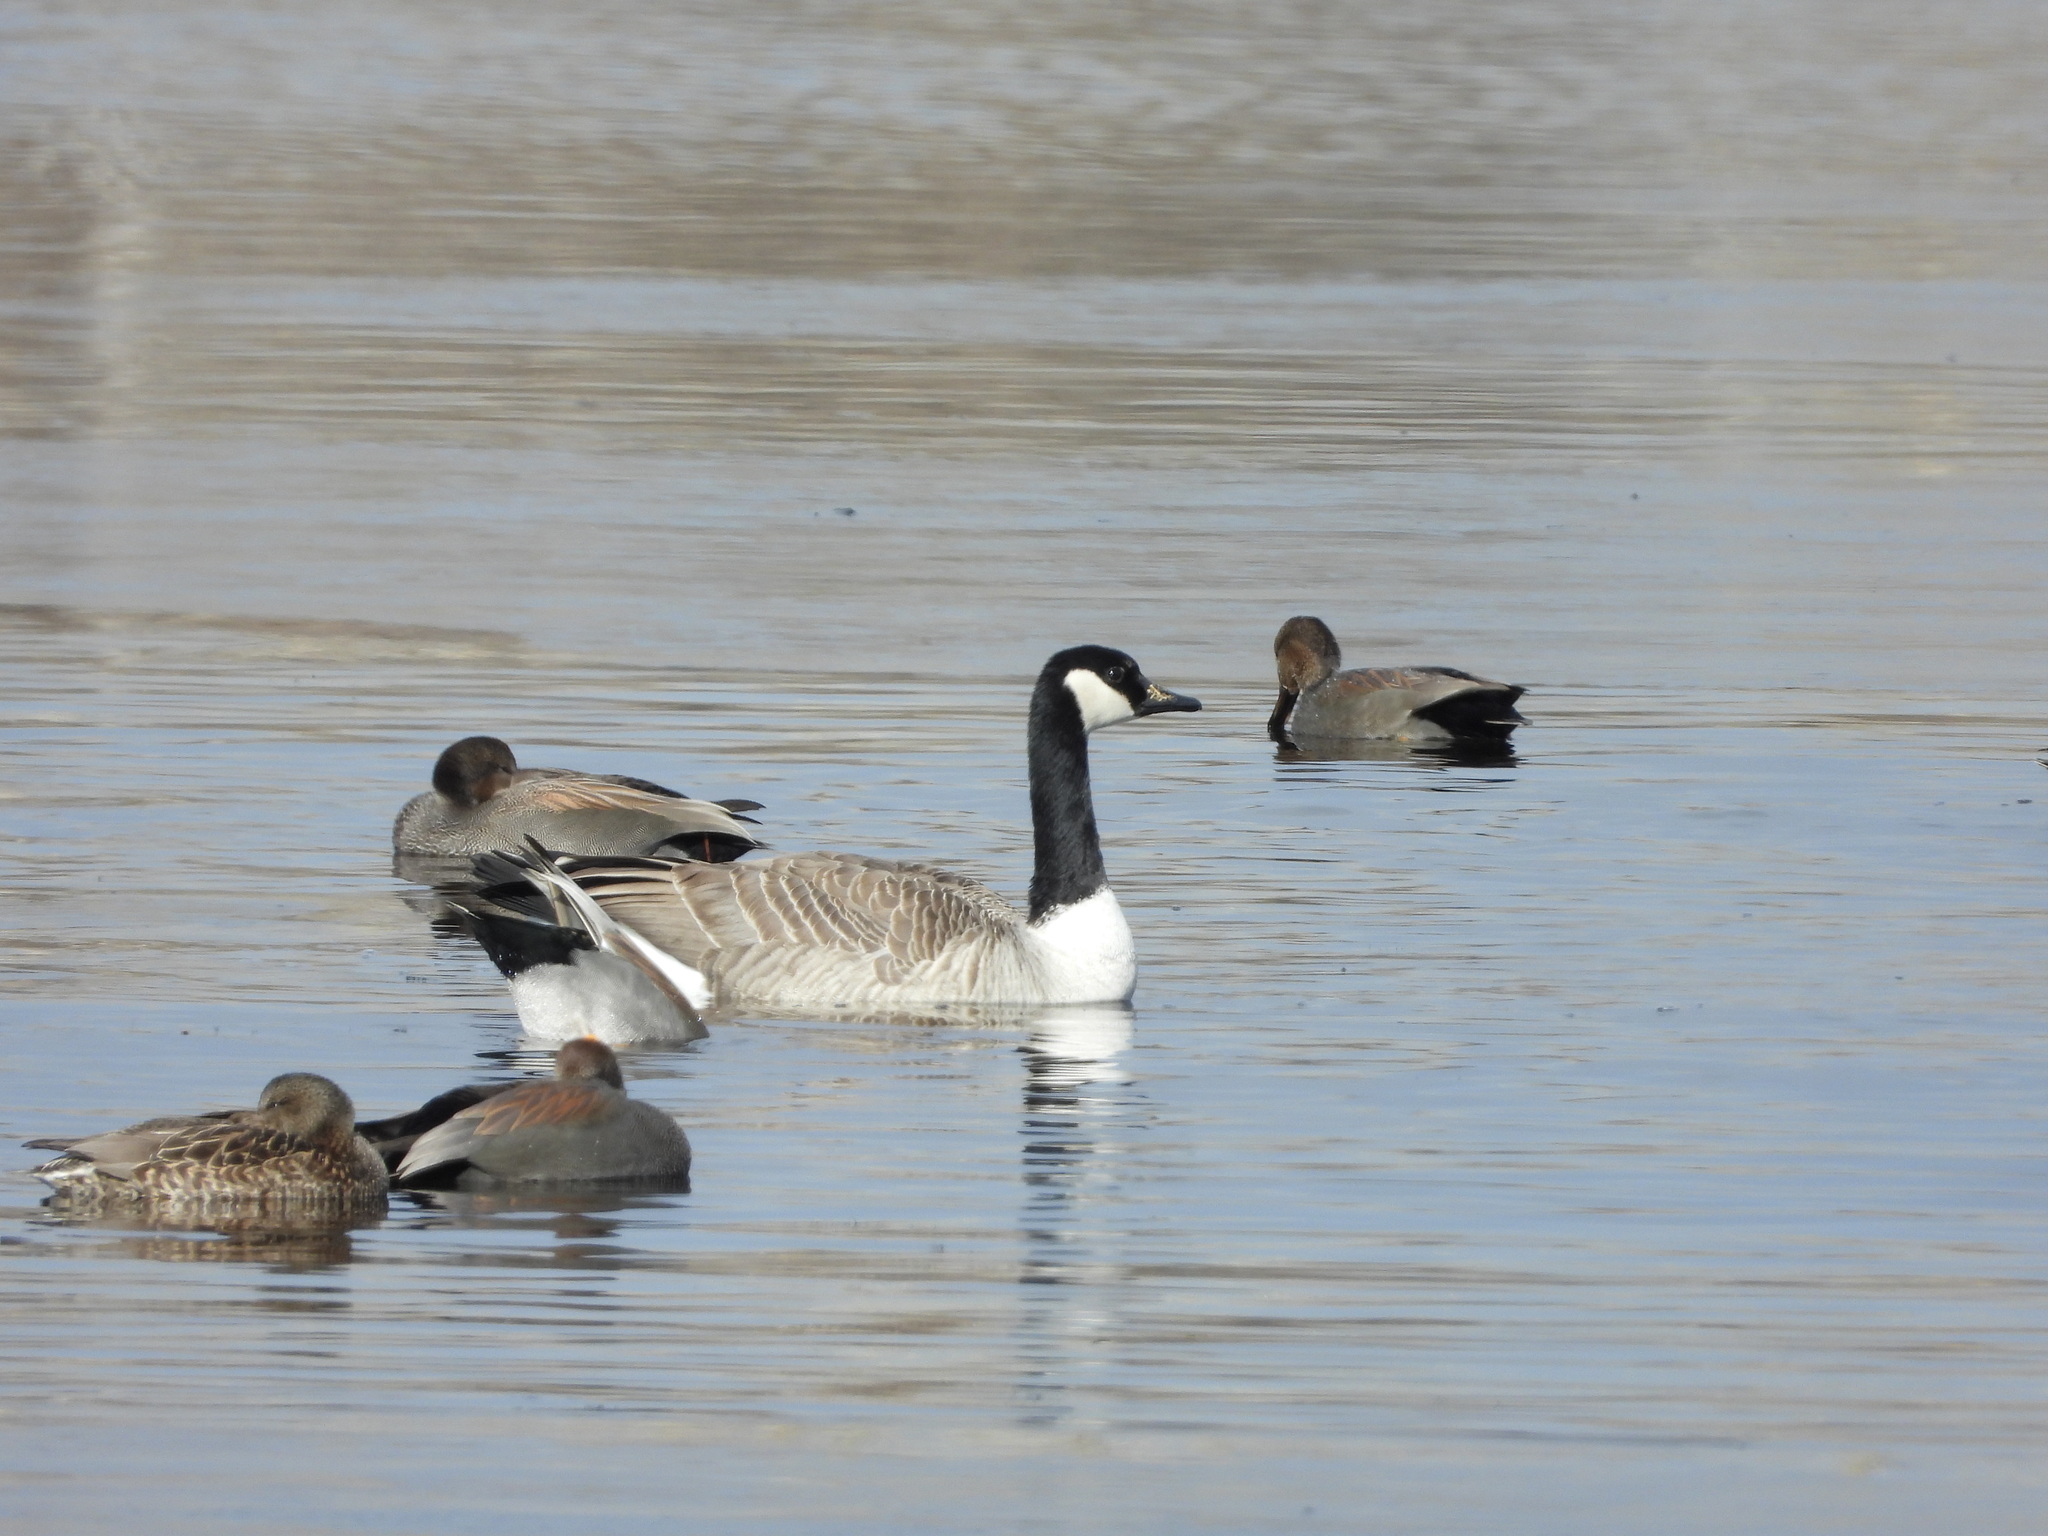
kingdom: Animalia
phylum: Chordata
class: Aves
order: Anseriformes
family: Anatidae
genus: Branta
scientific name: Branta canadensis
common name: Canada goose
